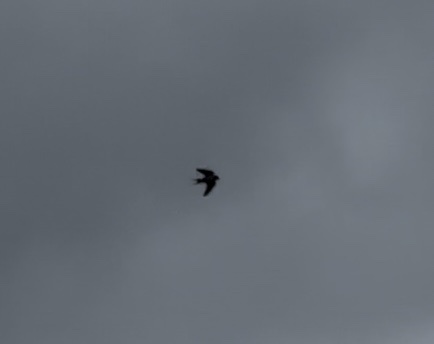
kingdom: Animalia
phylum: Chordata
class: Aves
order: Passeriformes
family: Hirundinidae
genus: Hirundo
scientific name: Hirundo rustica
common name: Barn swallow
